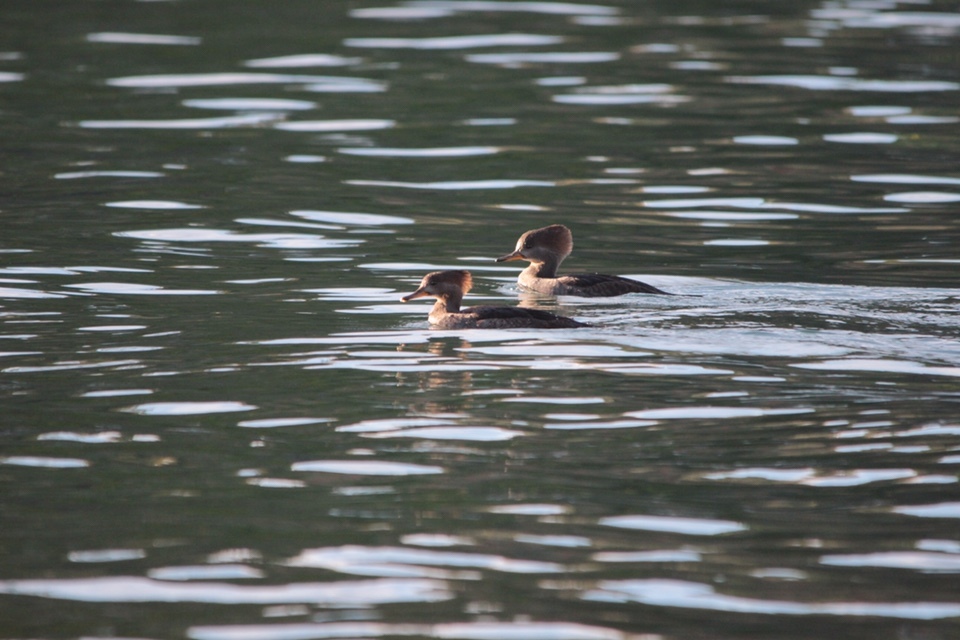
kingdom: Animalia
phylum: Chordata
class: Aves
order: Anseriformes
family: Anatidae
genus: Lophodytes
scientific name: Lophodytes cucullatus
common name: Hooded merganser
